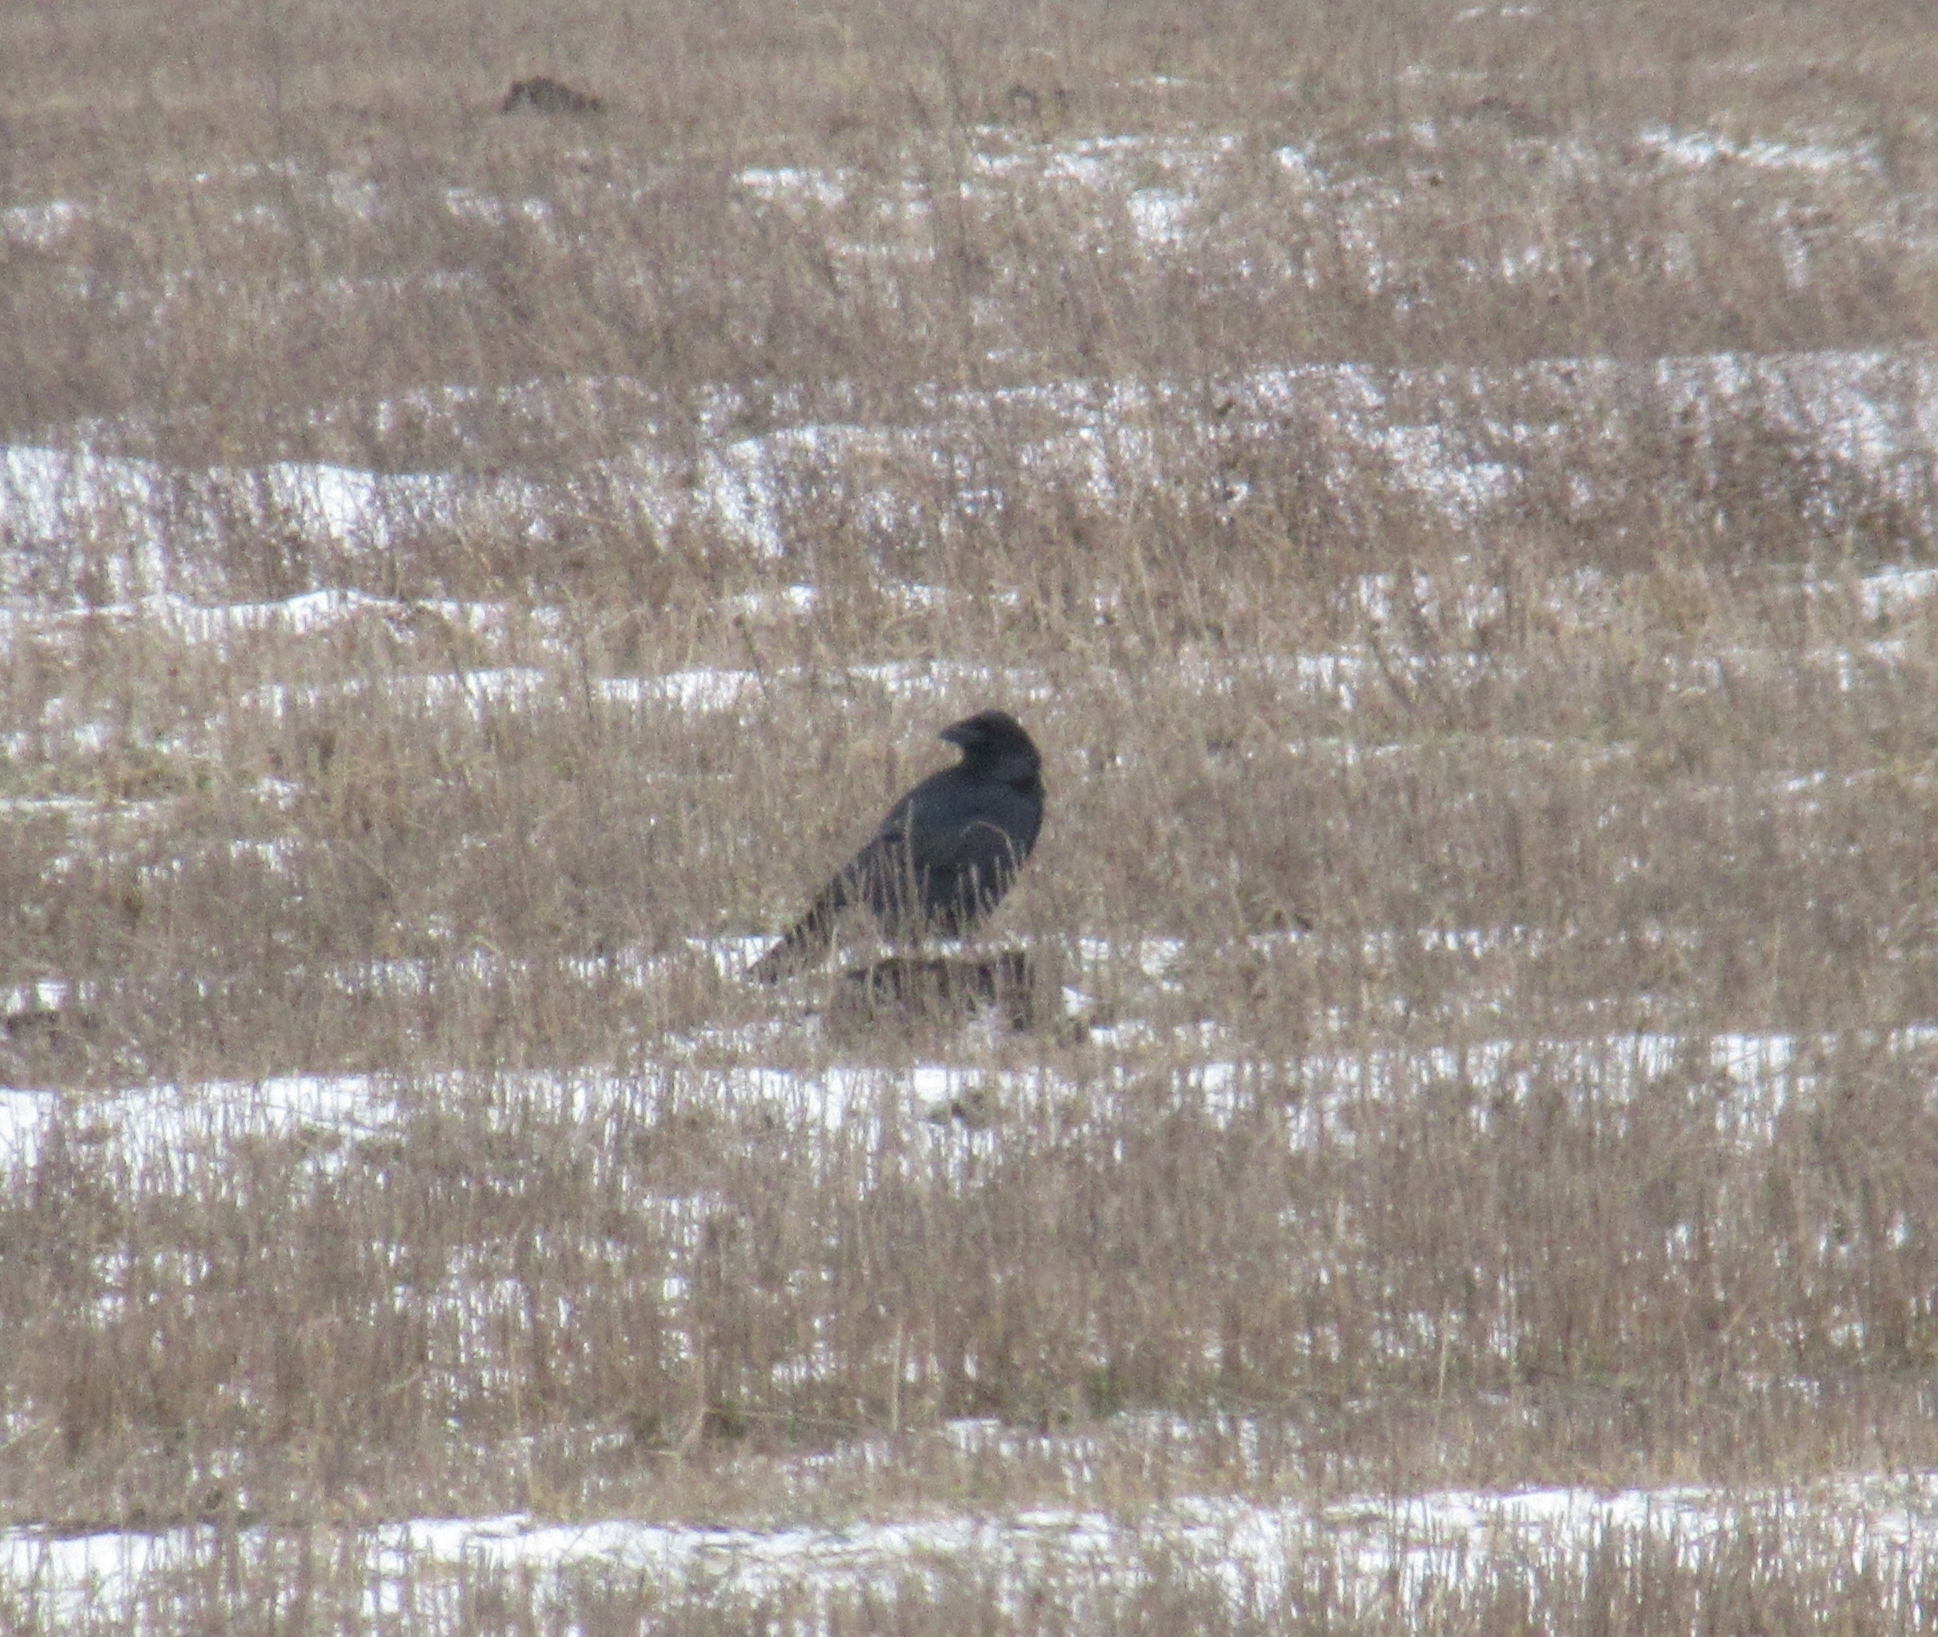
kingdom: Animalia
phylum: Chordata
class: Aves
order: Passeriformes
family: Corvidae
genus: Corvus
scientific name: Corvus corax
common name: Common raven
